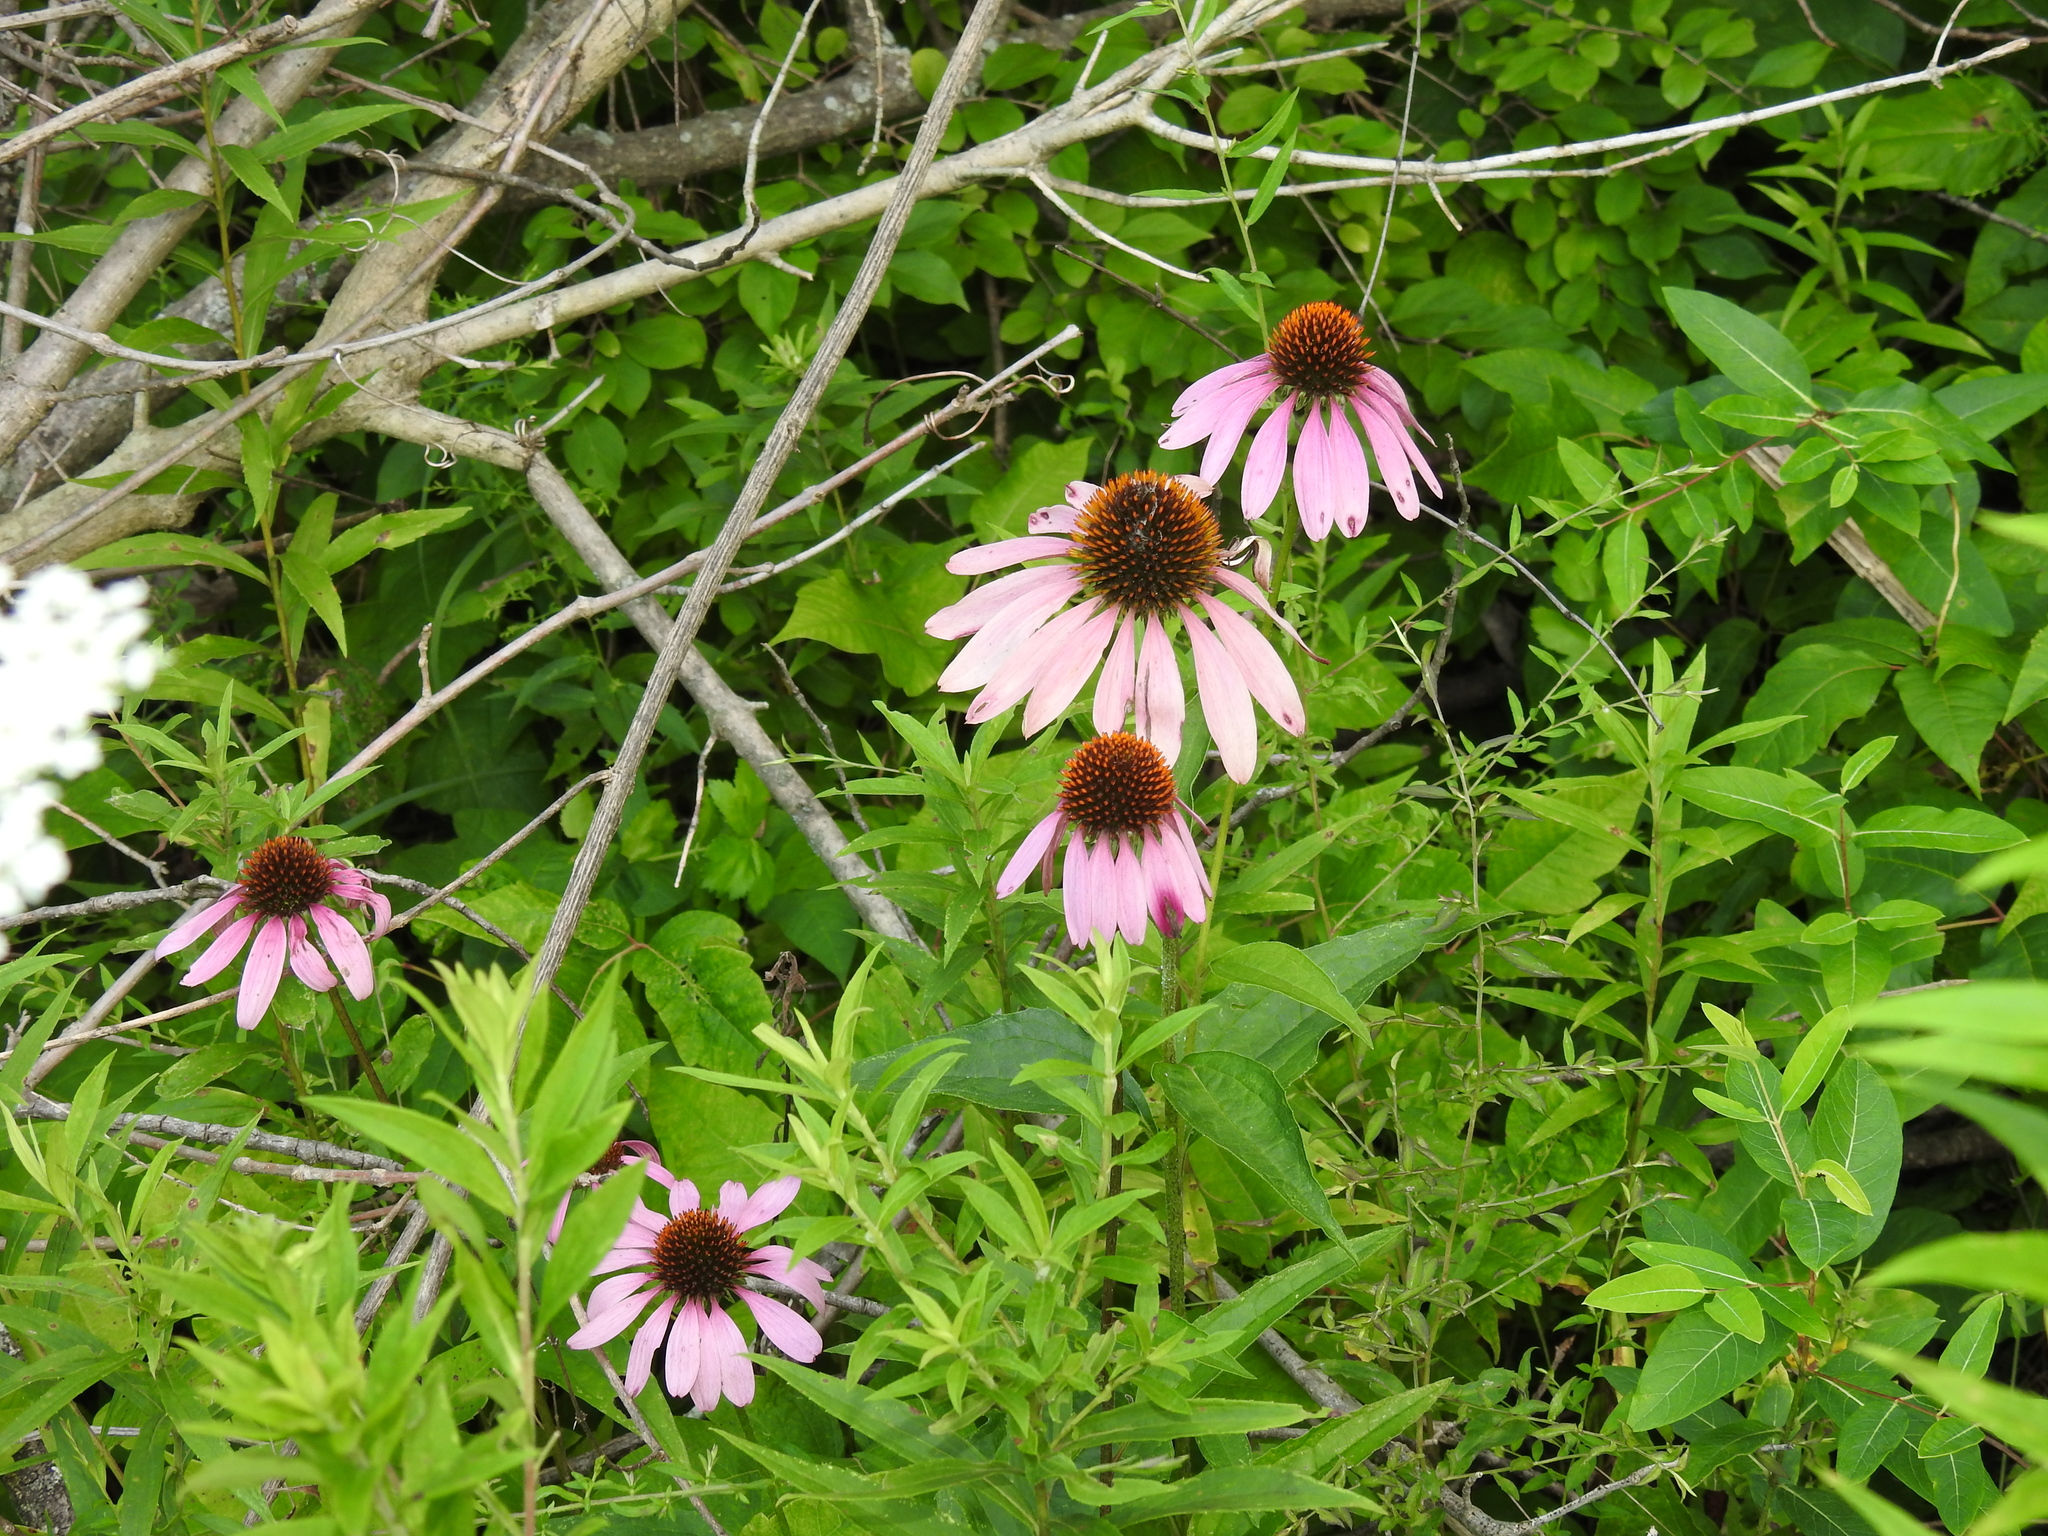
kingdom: Plantae
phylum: Tracheophyta
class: Magnoliopsida
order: Asterales
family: Asteraceae
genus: Echinacea
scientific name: Echinacea purpurea
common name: Broad-leaved purple coneflower
